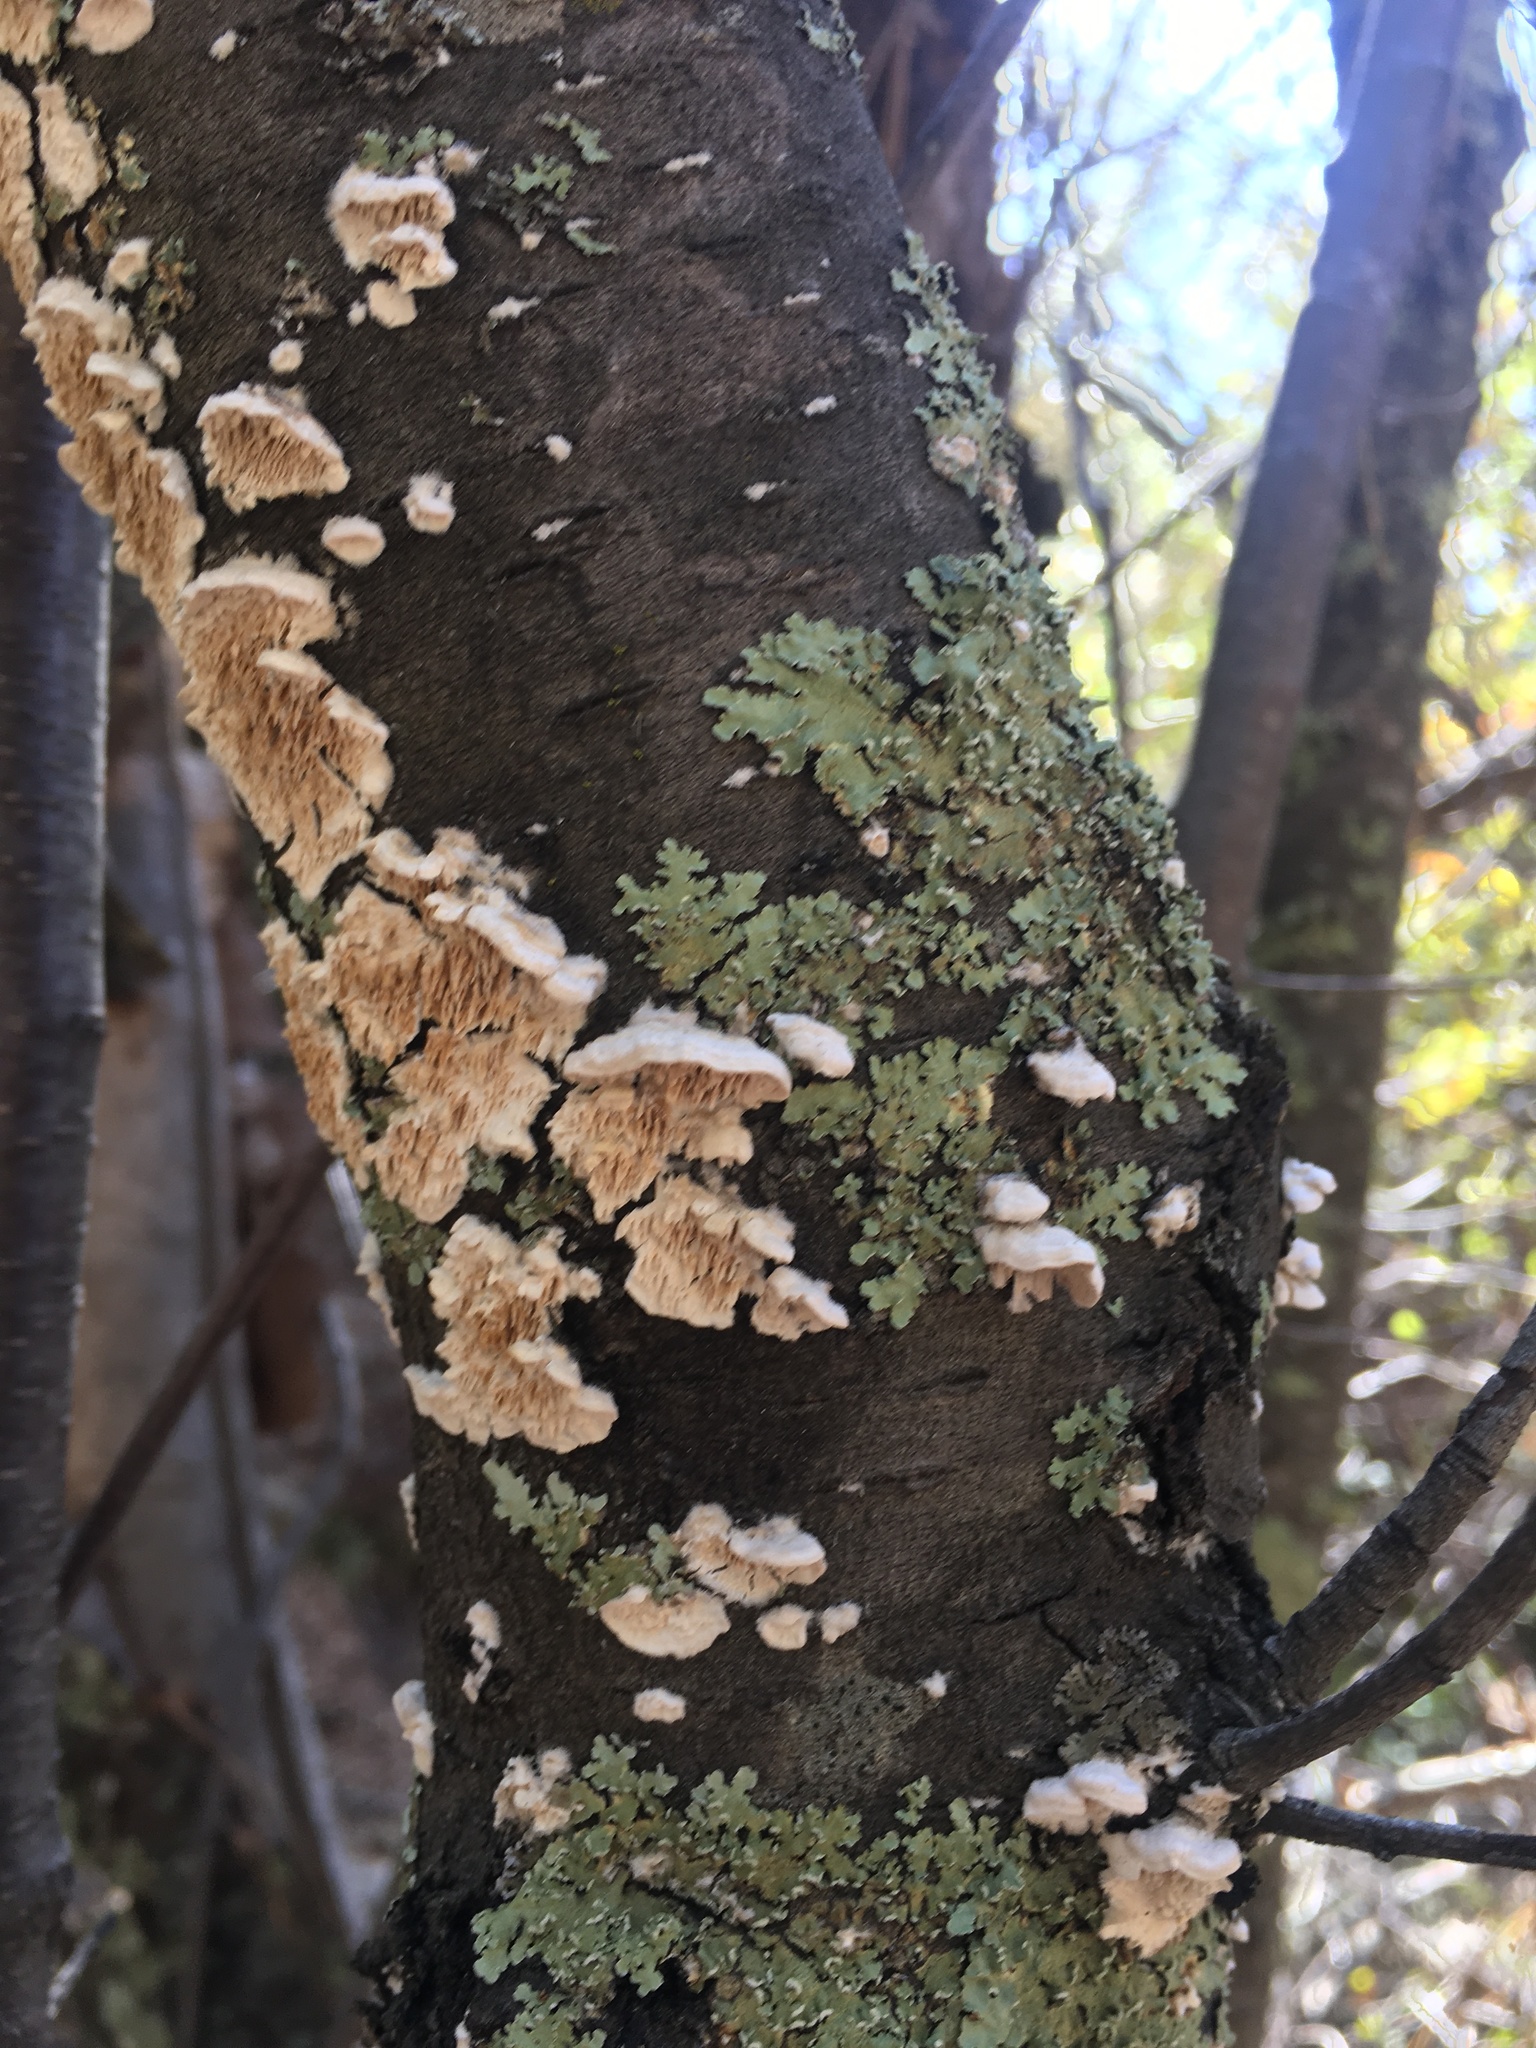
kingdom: Fungi
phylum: Basidiomycota
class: Agaricomycetes
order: Polyporales
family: Irpicaceae
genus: Irpex
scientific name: Irpex lacteus
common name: Milk-white toothed polypore
